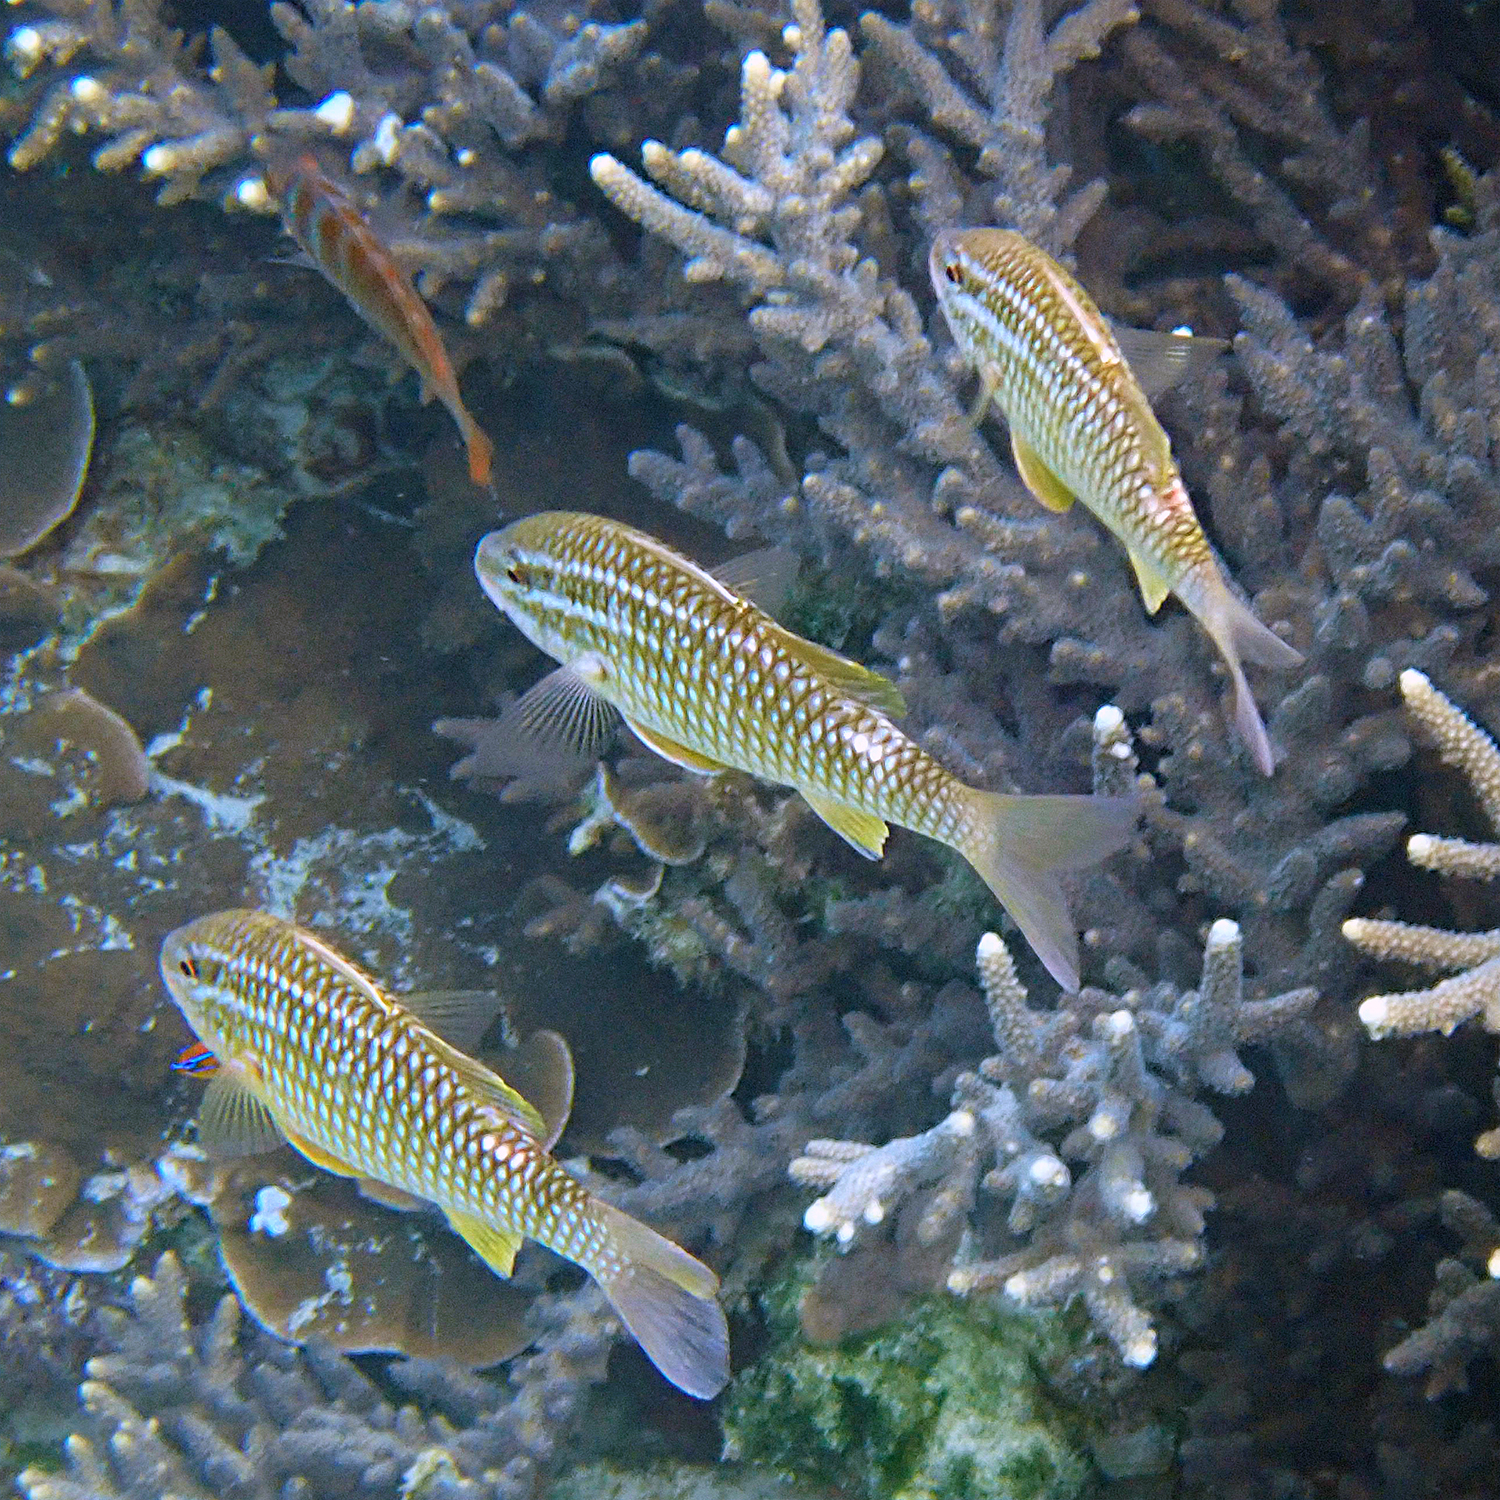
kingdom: Animalia
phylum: Chordata
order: Perciformes
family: Mullidae
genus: Parupeneus
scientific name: Parupeneus ciliatus
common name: White-lined goatfish
